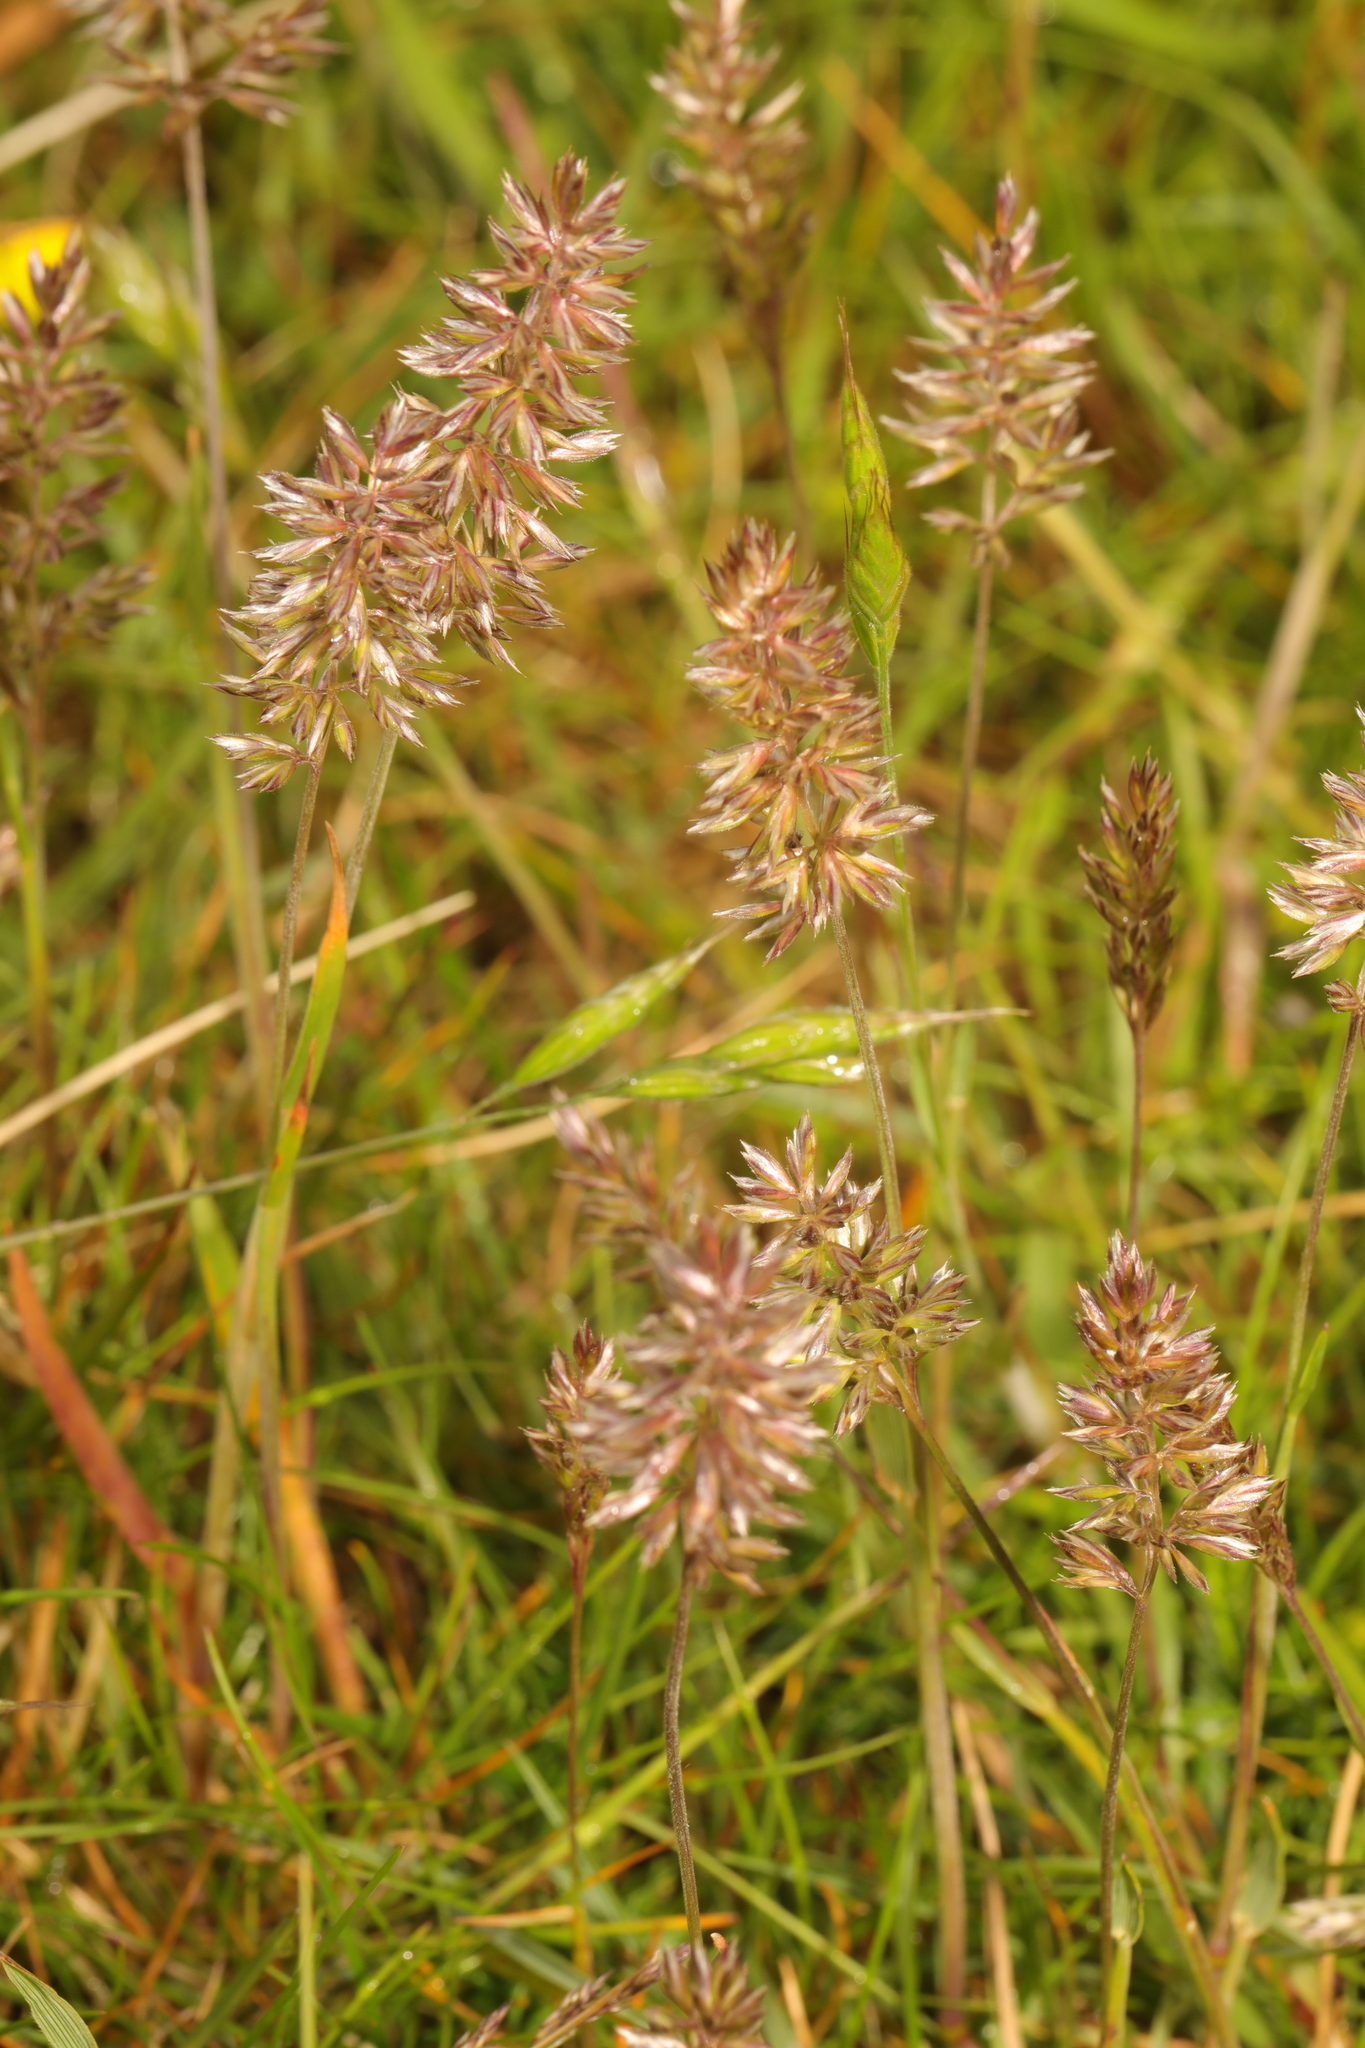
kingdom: Plantae
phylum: Tracheophyta
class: Liliopsida
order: Poales
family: Poaceae
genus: Koeleria
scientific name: Koeleria macrantha
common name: Crested hair-grass
